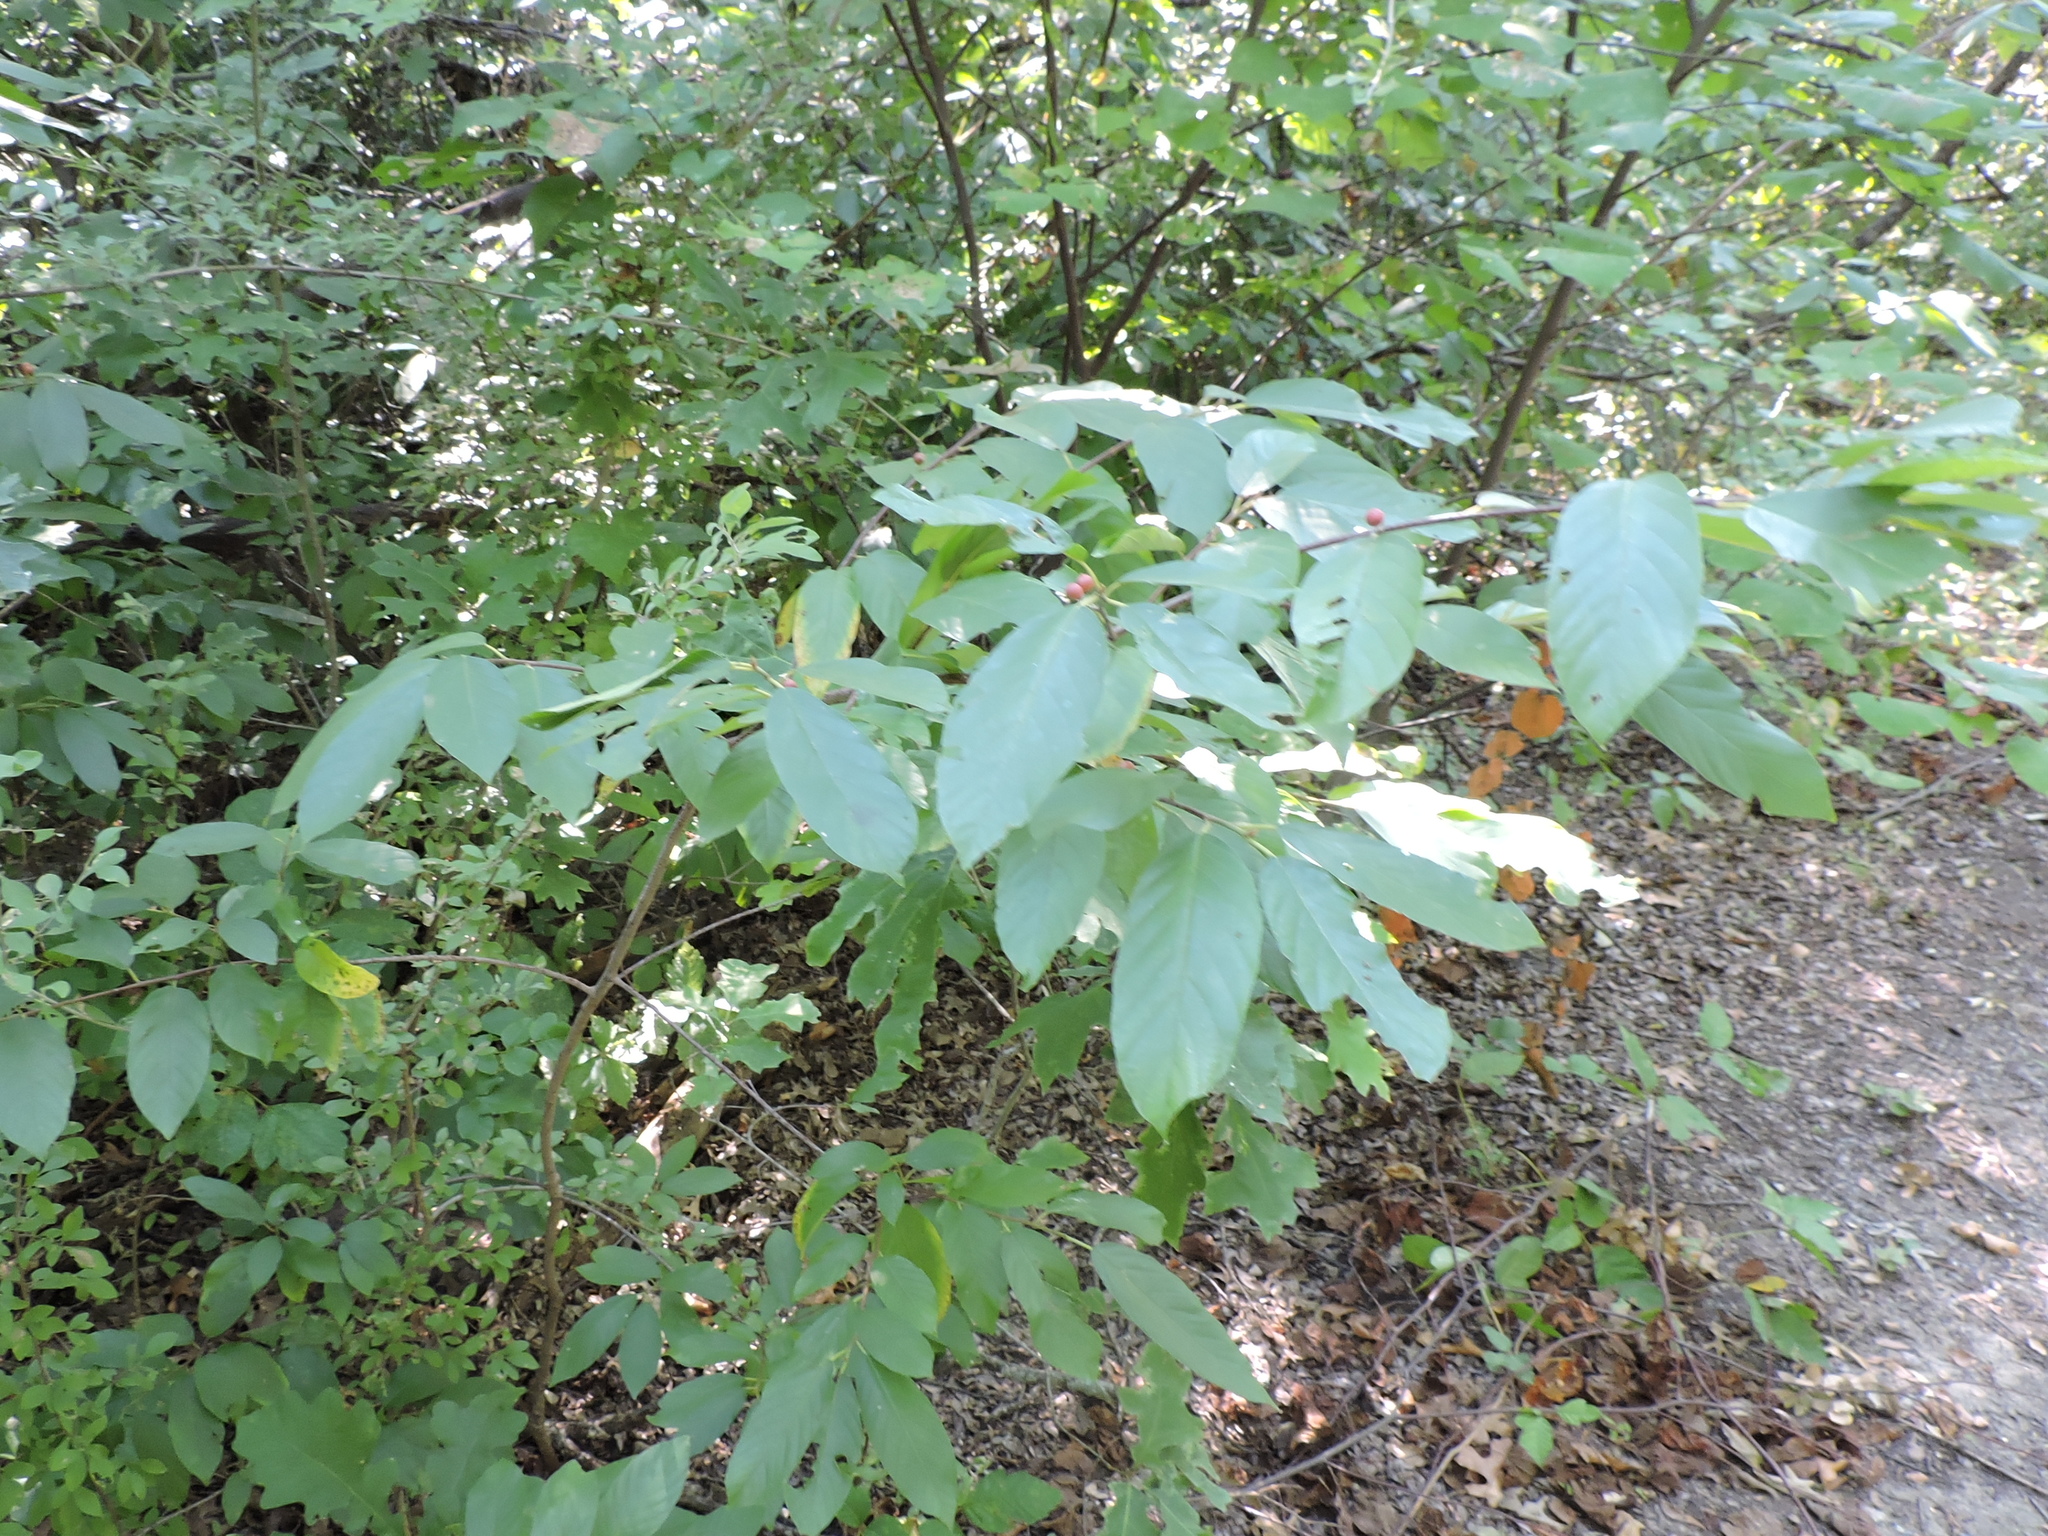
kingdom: Plantae
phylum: Tracheophyta
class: Magnoliopsida
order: Rosales
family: Rhamnaceae
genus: Frangula
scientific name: Frangula caroliniana
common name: Carolina buckthorn
